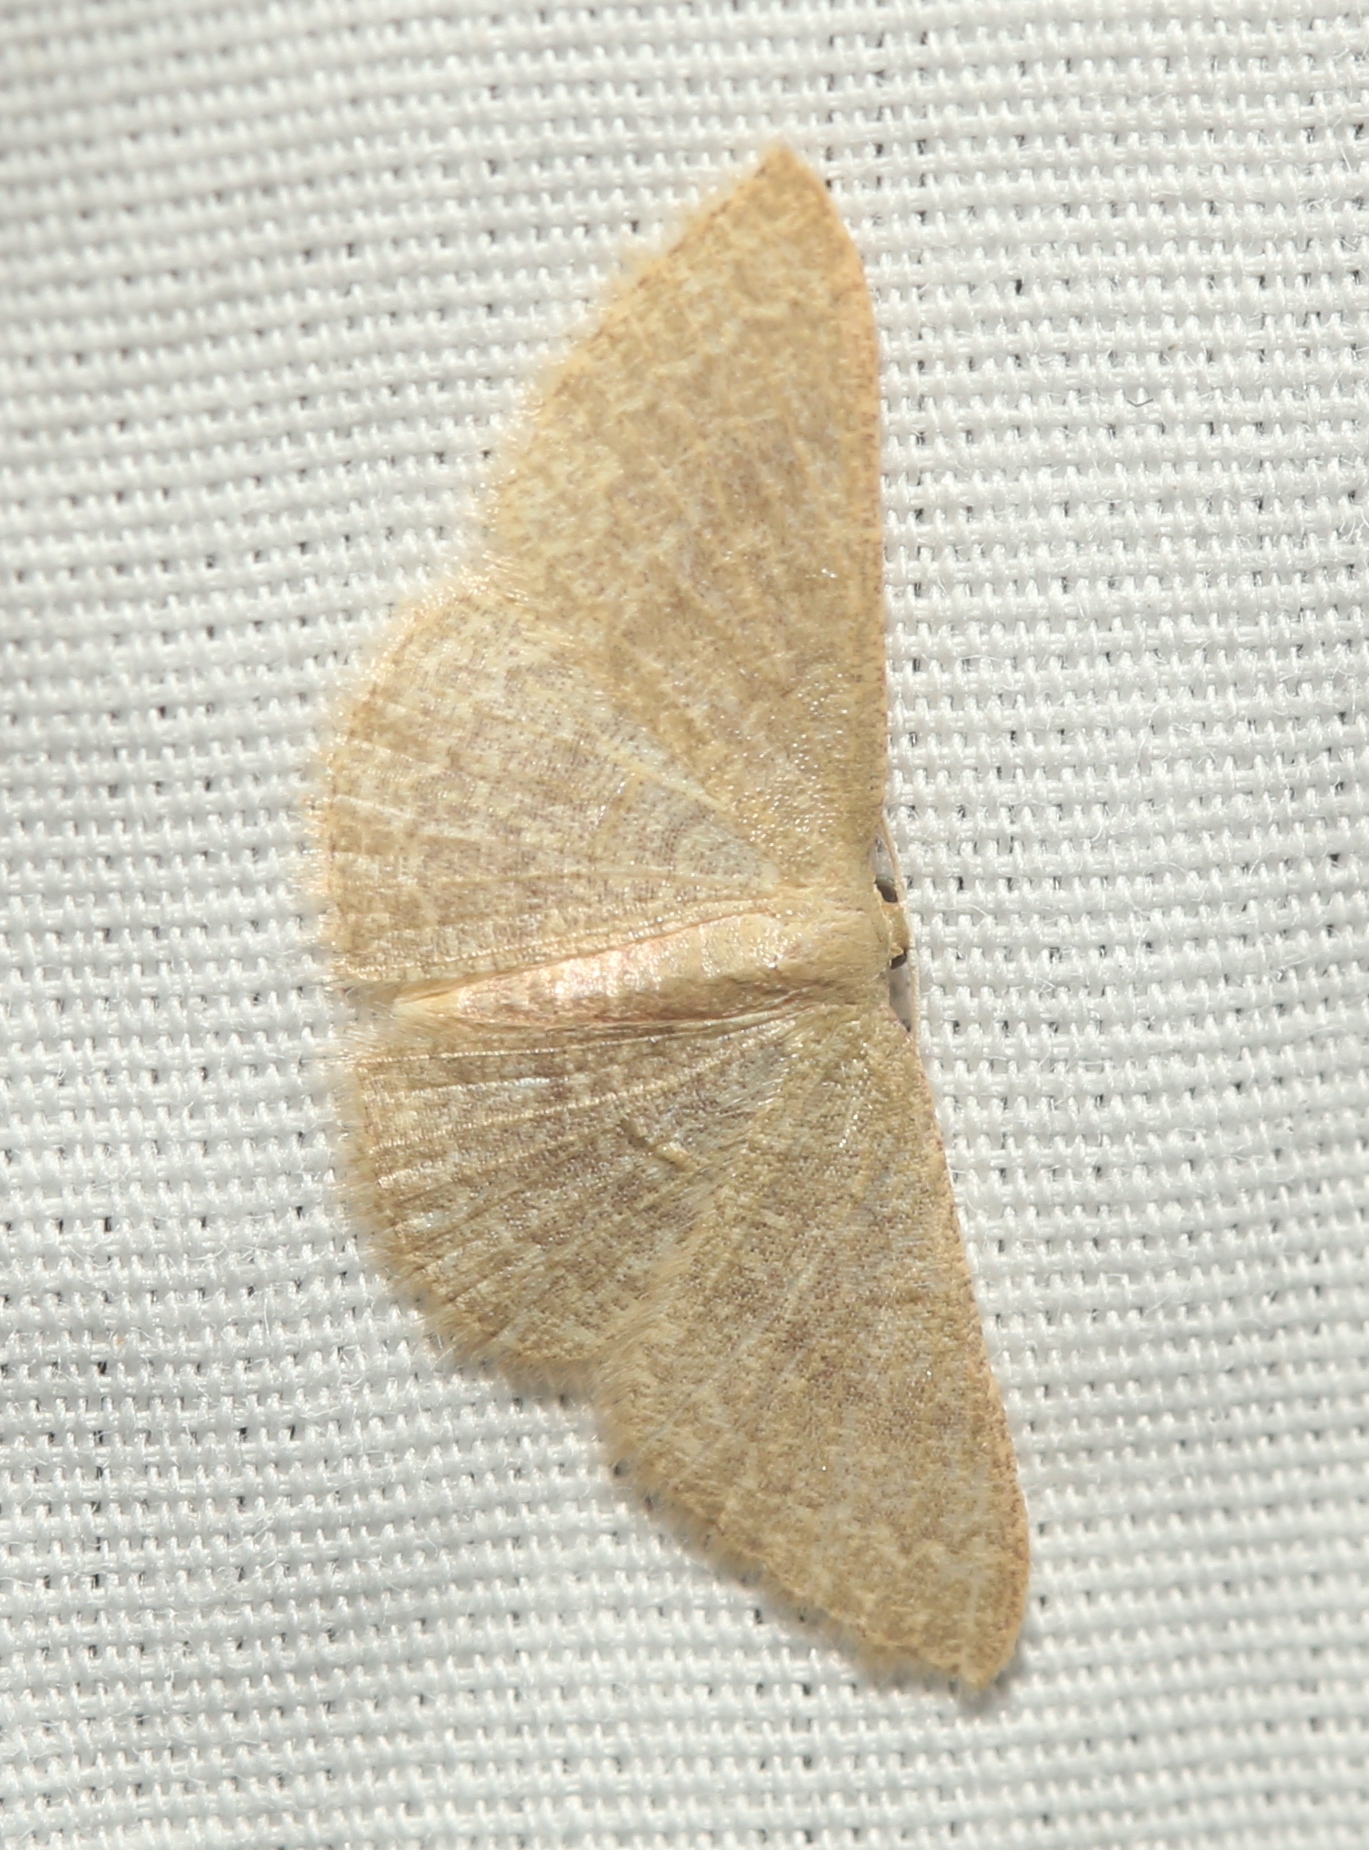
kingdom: Animalia
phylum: Arthropoda
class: Insecta
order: Lepidoptera
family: Geometridae
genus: Pleuroprucha
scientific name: Pleuroprucha insulsaria
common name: Common tan wave
